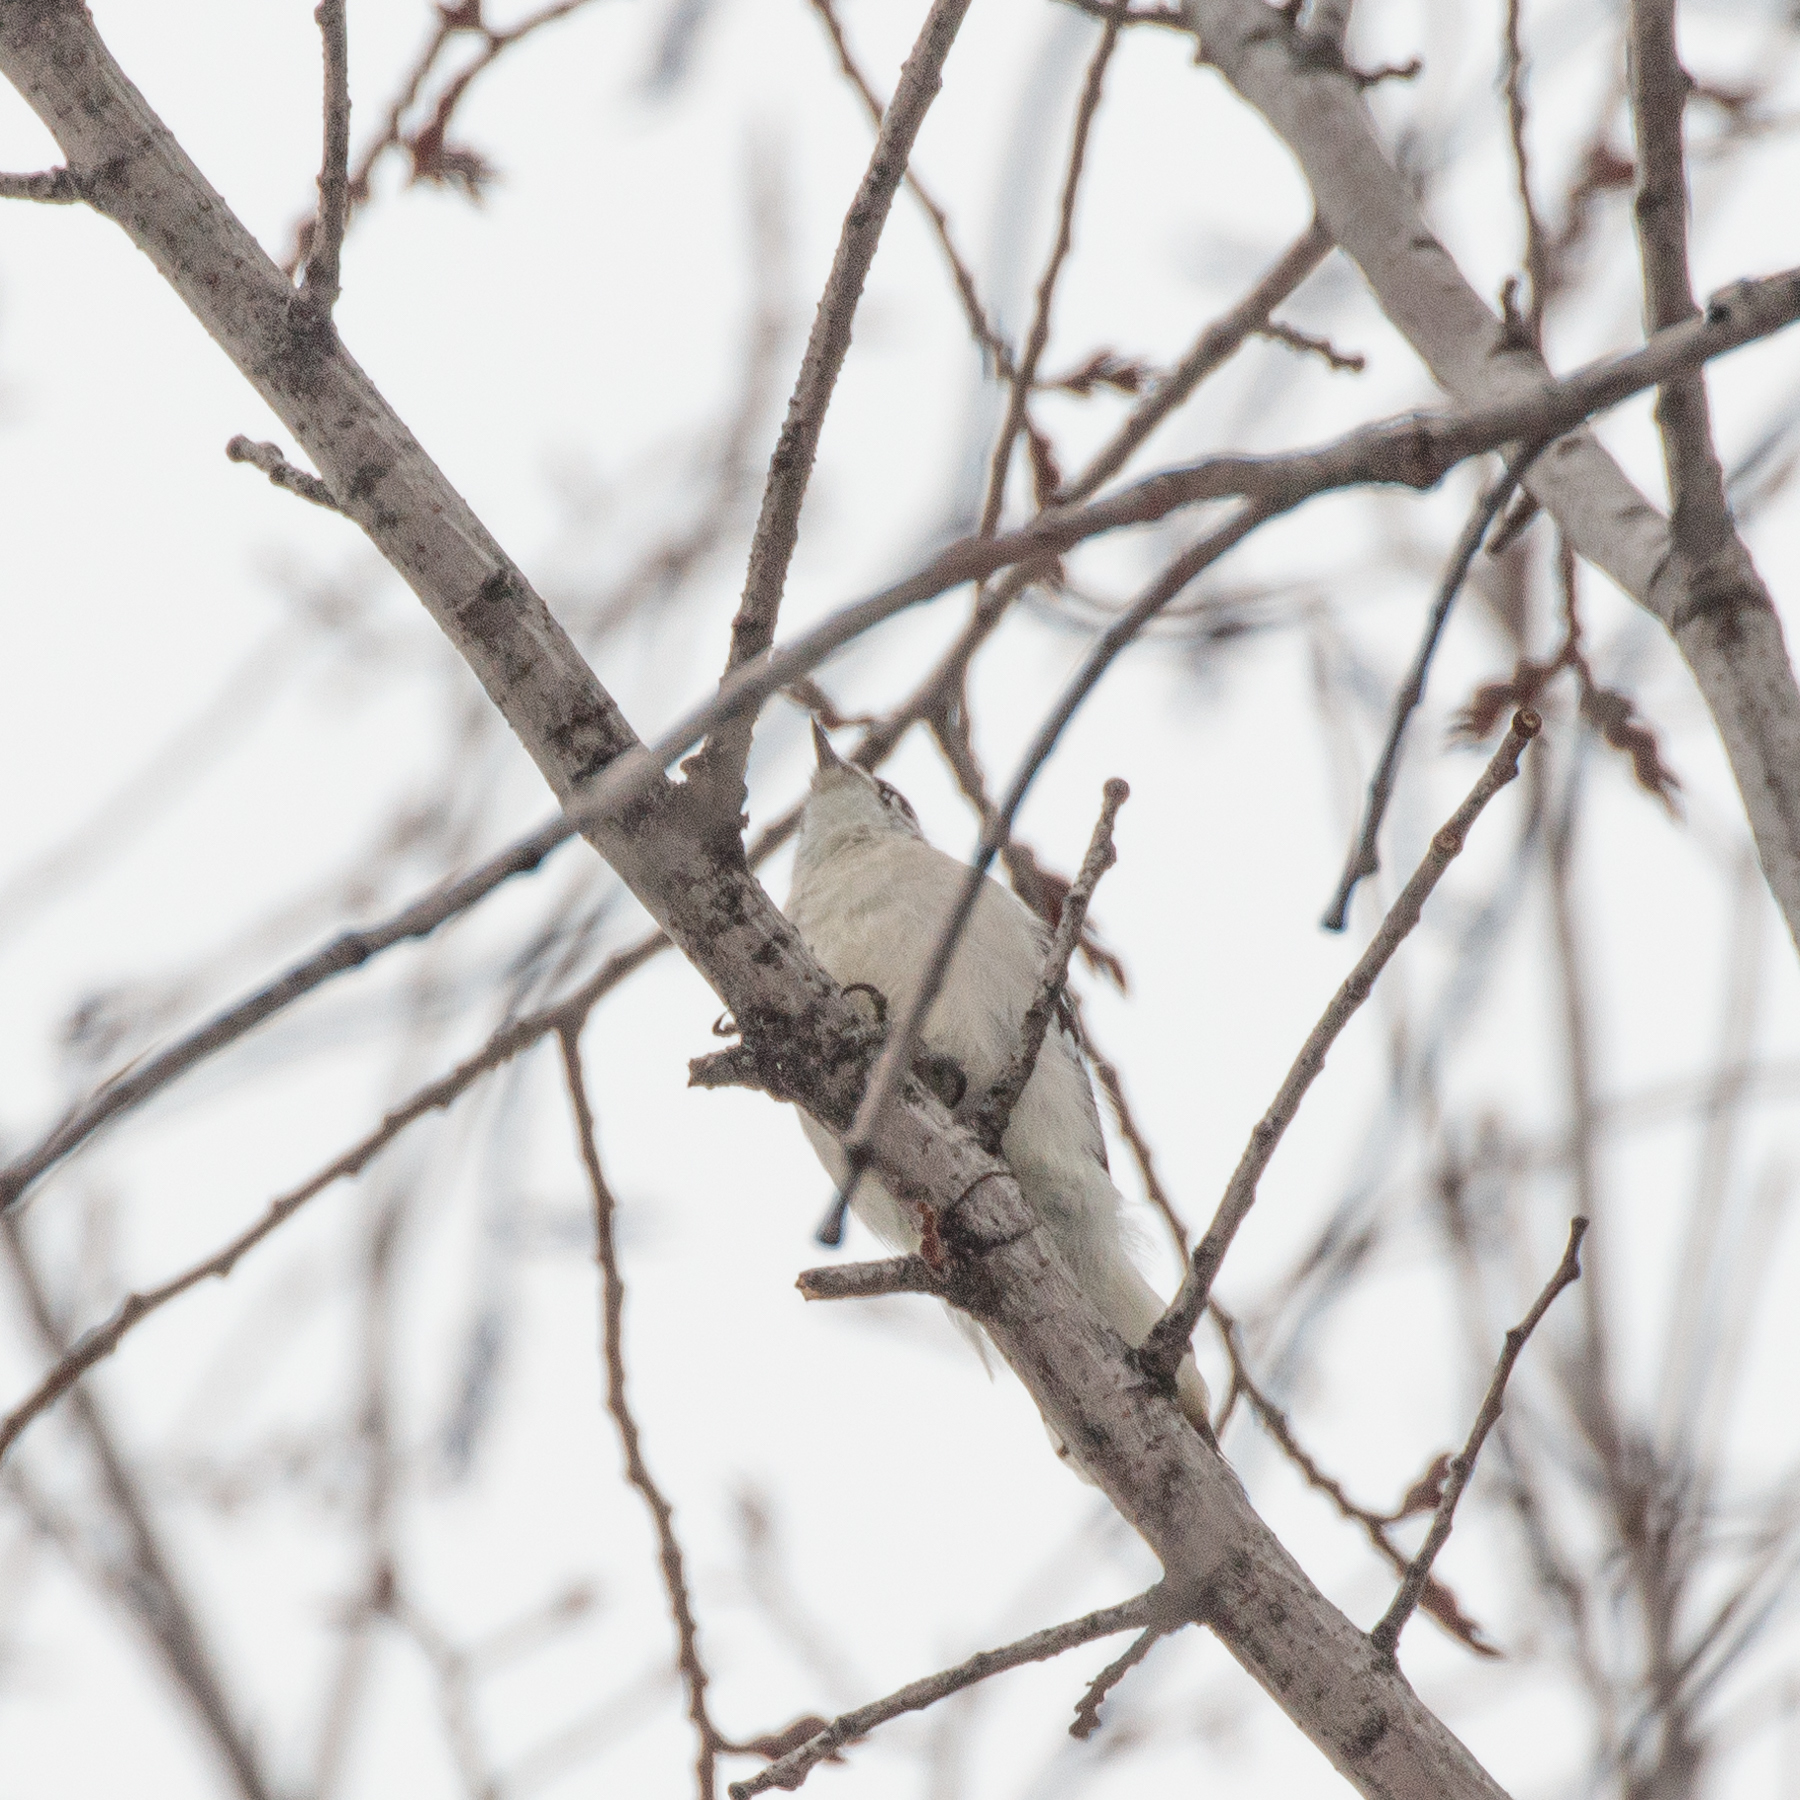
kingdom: Animalia
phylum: Chordata
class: Aves
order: Piciformes
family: Picidae
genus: Dryobates
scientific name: Dryobates pubescens
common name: Downy woodpecker
